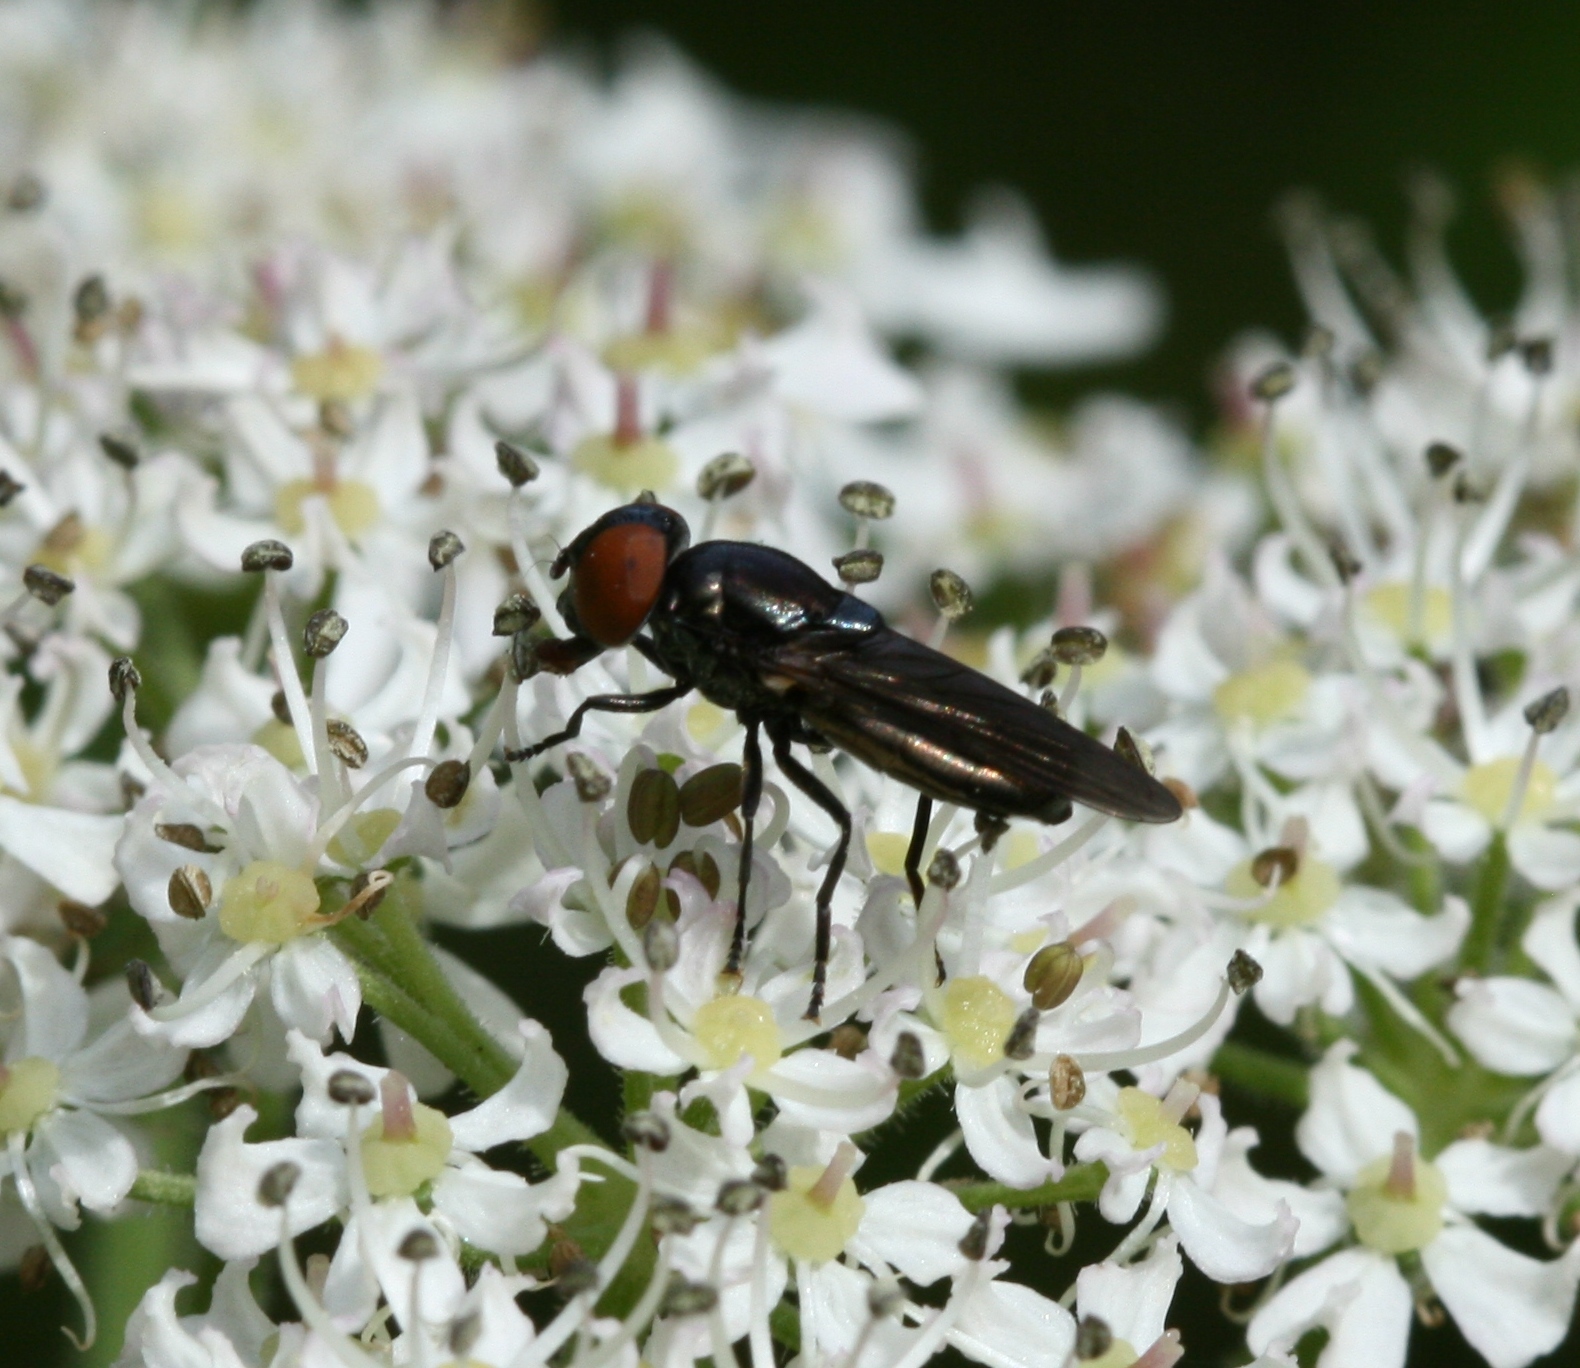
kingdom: Animalia
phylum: Arthropoda
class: Insecta
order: Diptera
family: Syrphidae
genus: Chrysogaster
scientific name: Chrysogaster solstitialis
